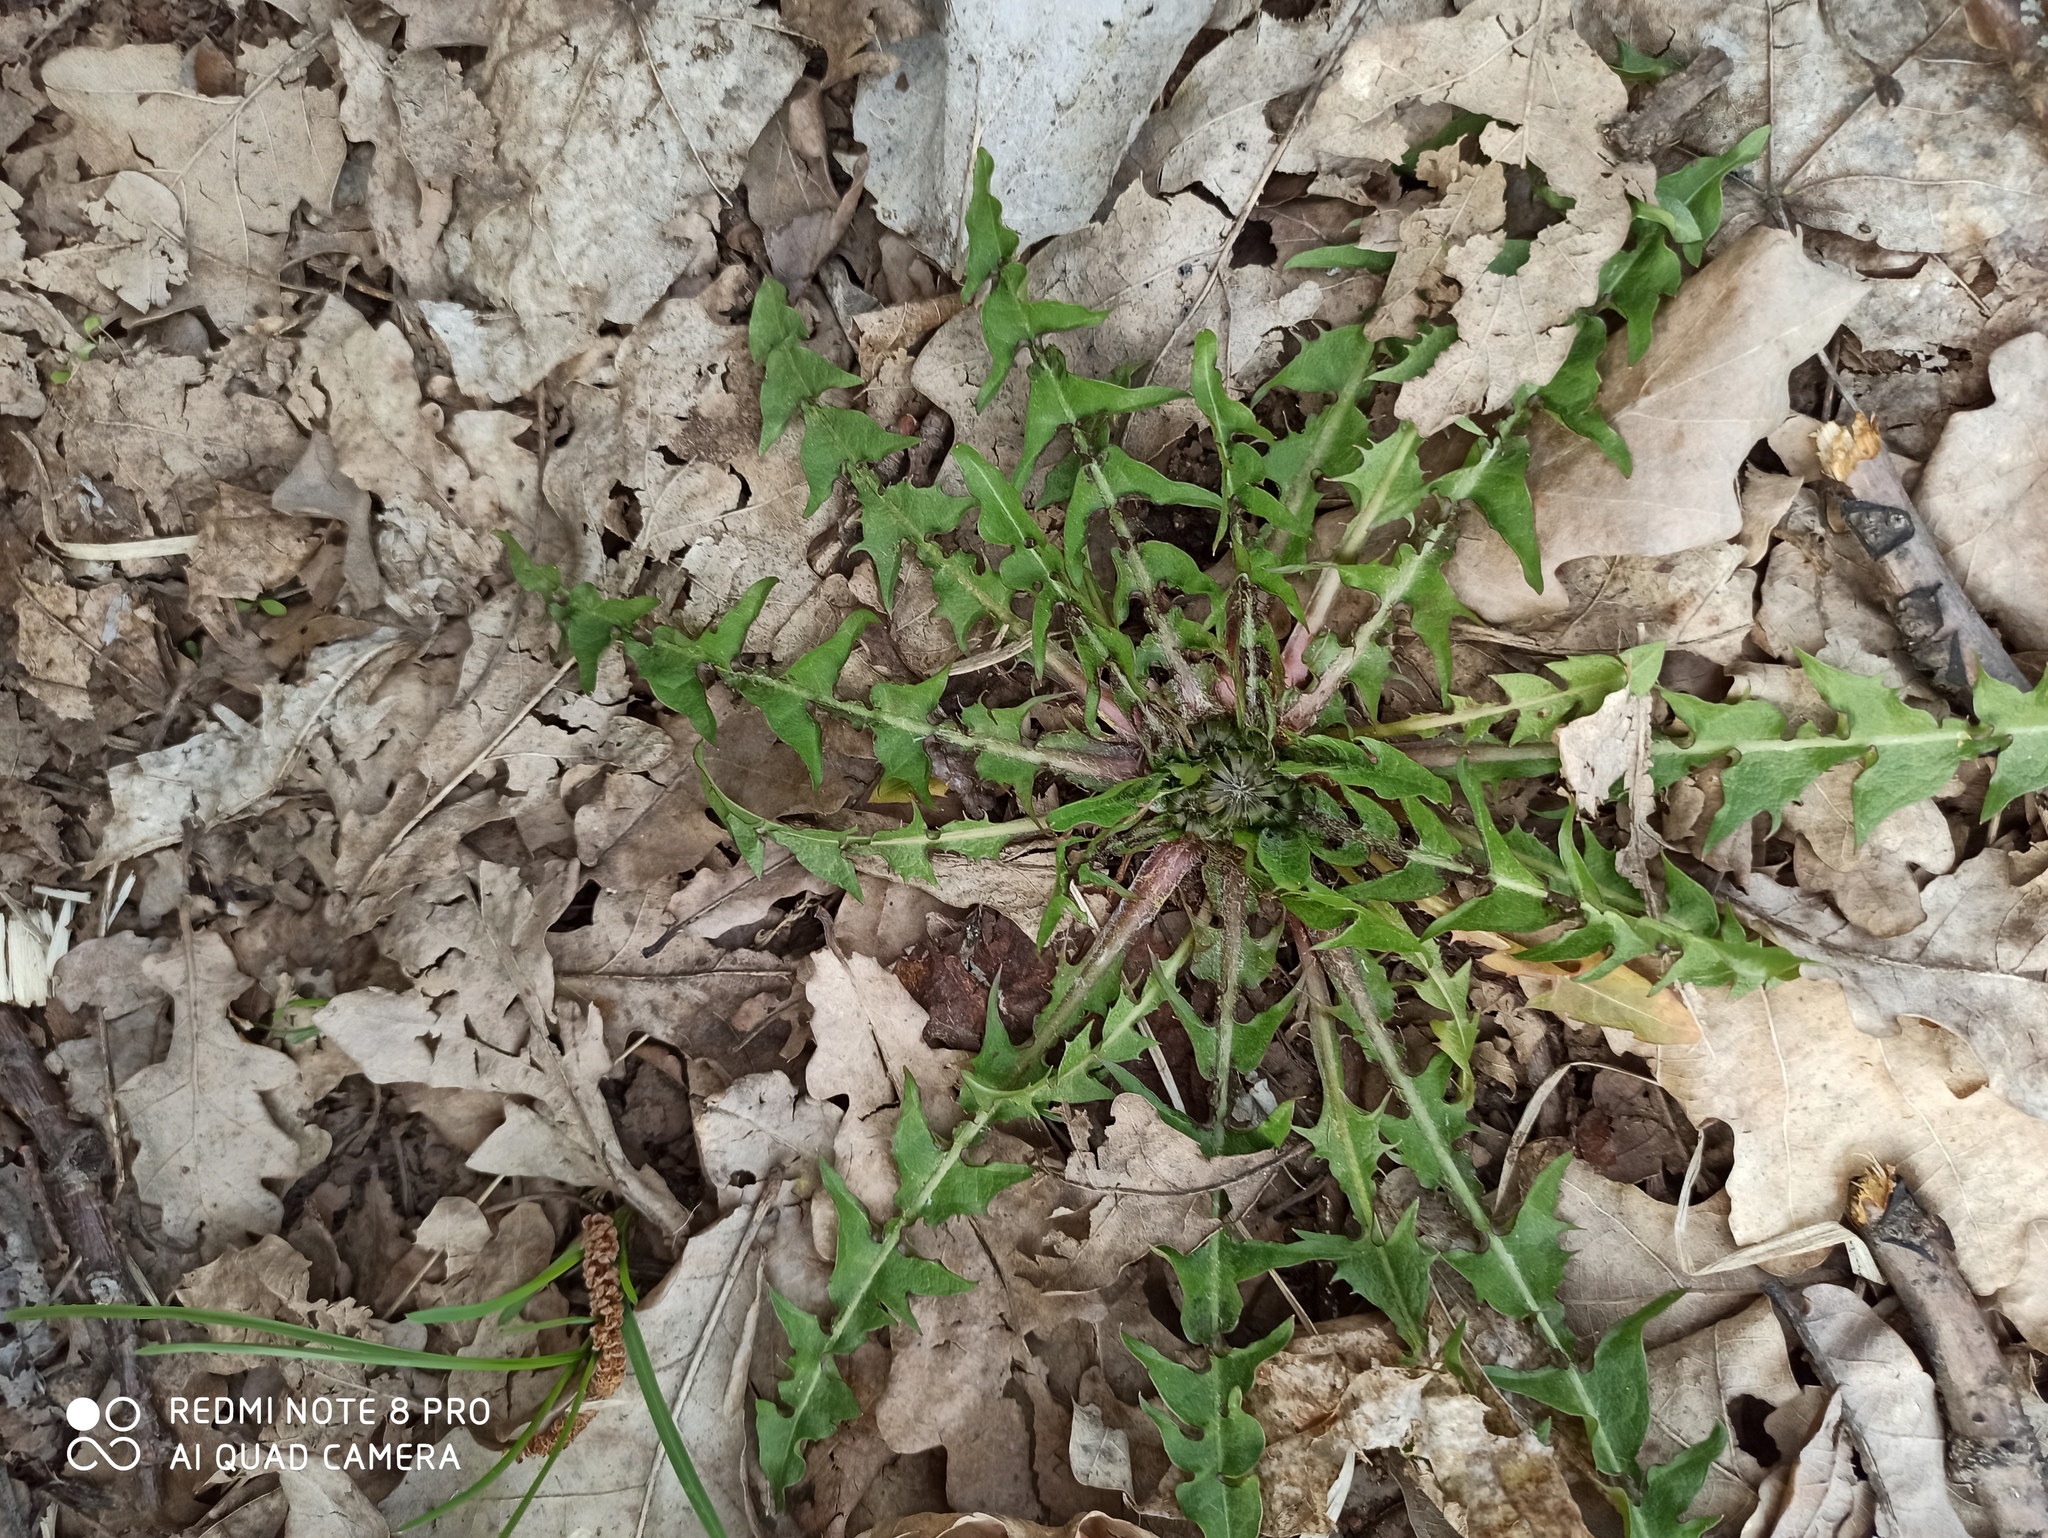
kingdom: Plantae
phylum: Tracheophyta
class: Magnoliopsida
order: Asterales
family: Asteraceae
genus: Taraxacum
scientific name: Taraxacum officinale
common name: Common dandelion
